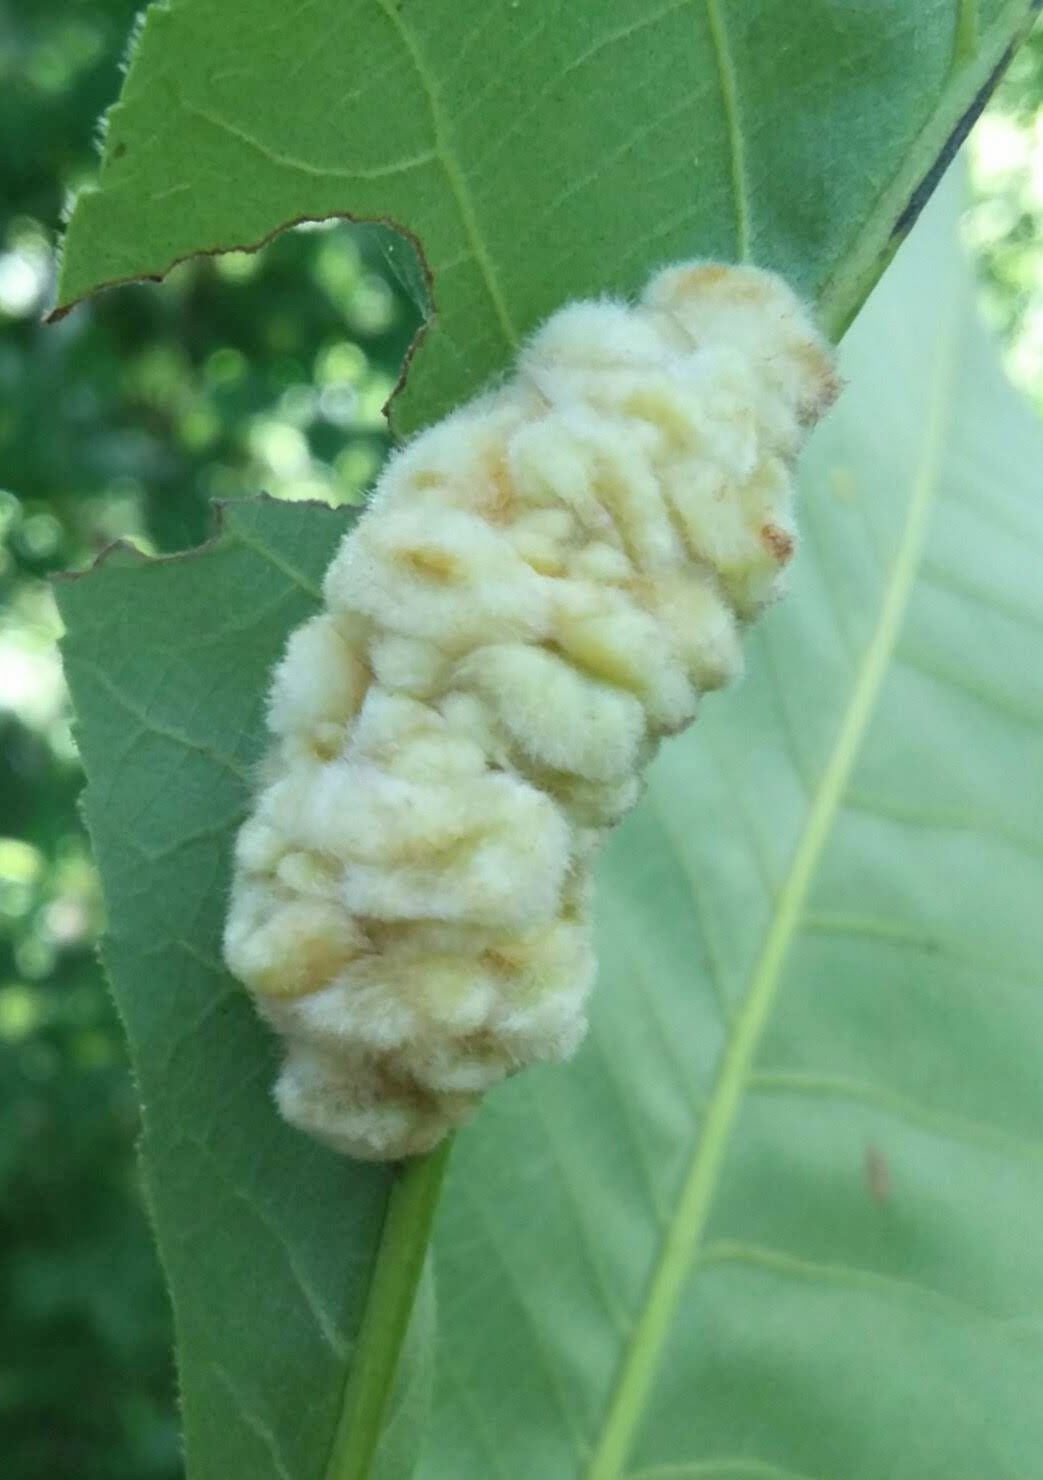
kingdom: Animalia
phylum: Arthropoda
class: Insecta
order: Diptera
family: Cecidomyiidae
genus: Caryomyia
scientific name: Caryomyia aggregata
